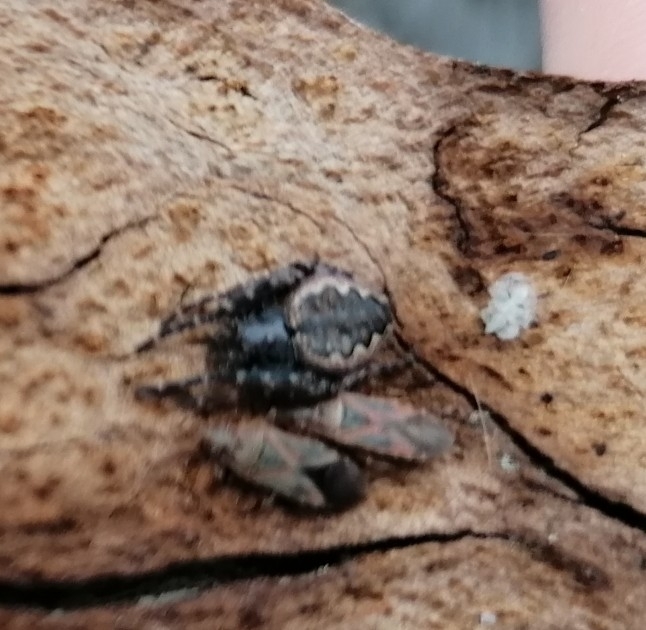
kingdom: Animalia
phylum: Arthropoda
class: Arachnida
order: Araneae
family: Araneidae
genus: Nuctenea
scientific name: Nuctenea umbratica
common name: Toad spider
